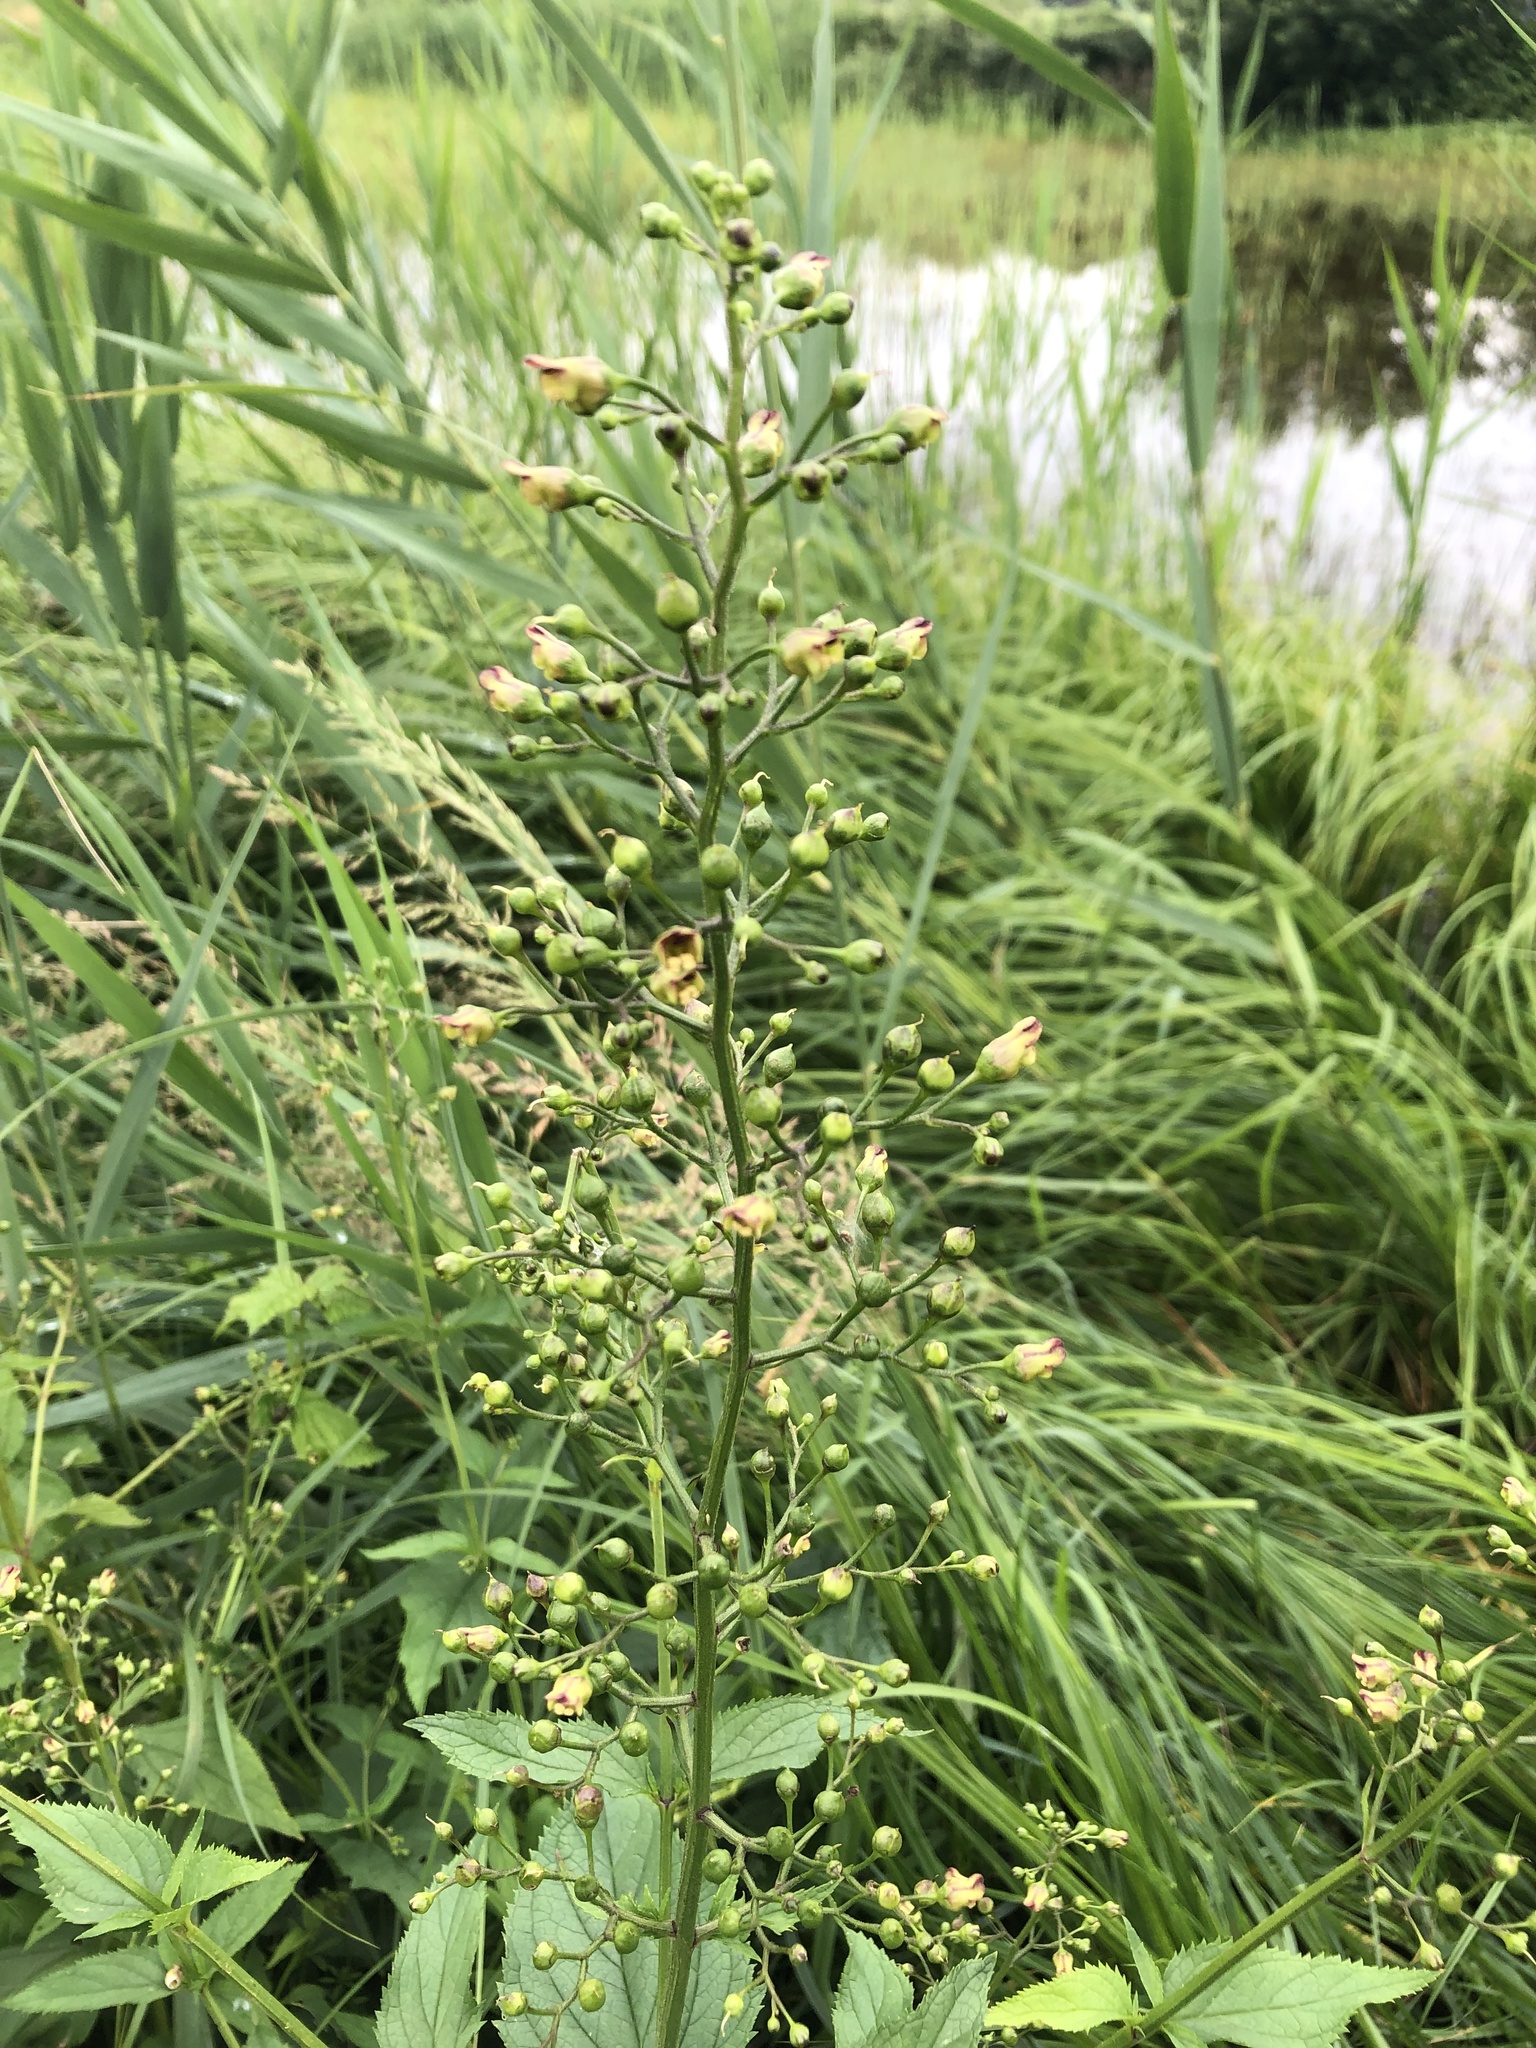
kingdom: Plantae
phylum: Tracheophyta
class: Magnoliopsida
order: Lamiales
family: Scrophulariaceae
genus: Scrophularia
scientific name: Scrophularia nodosa
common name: Common figwort
